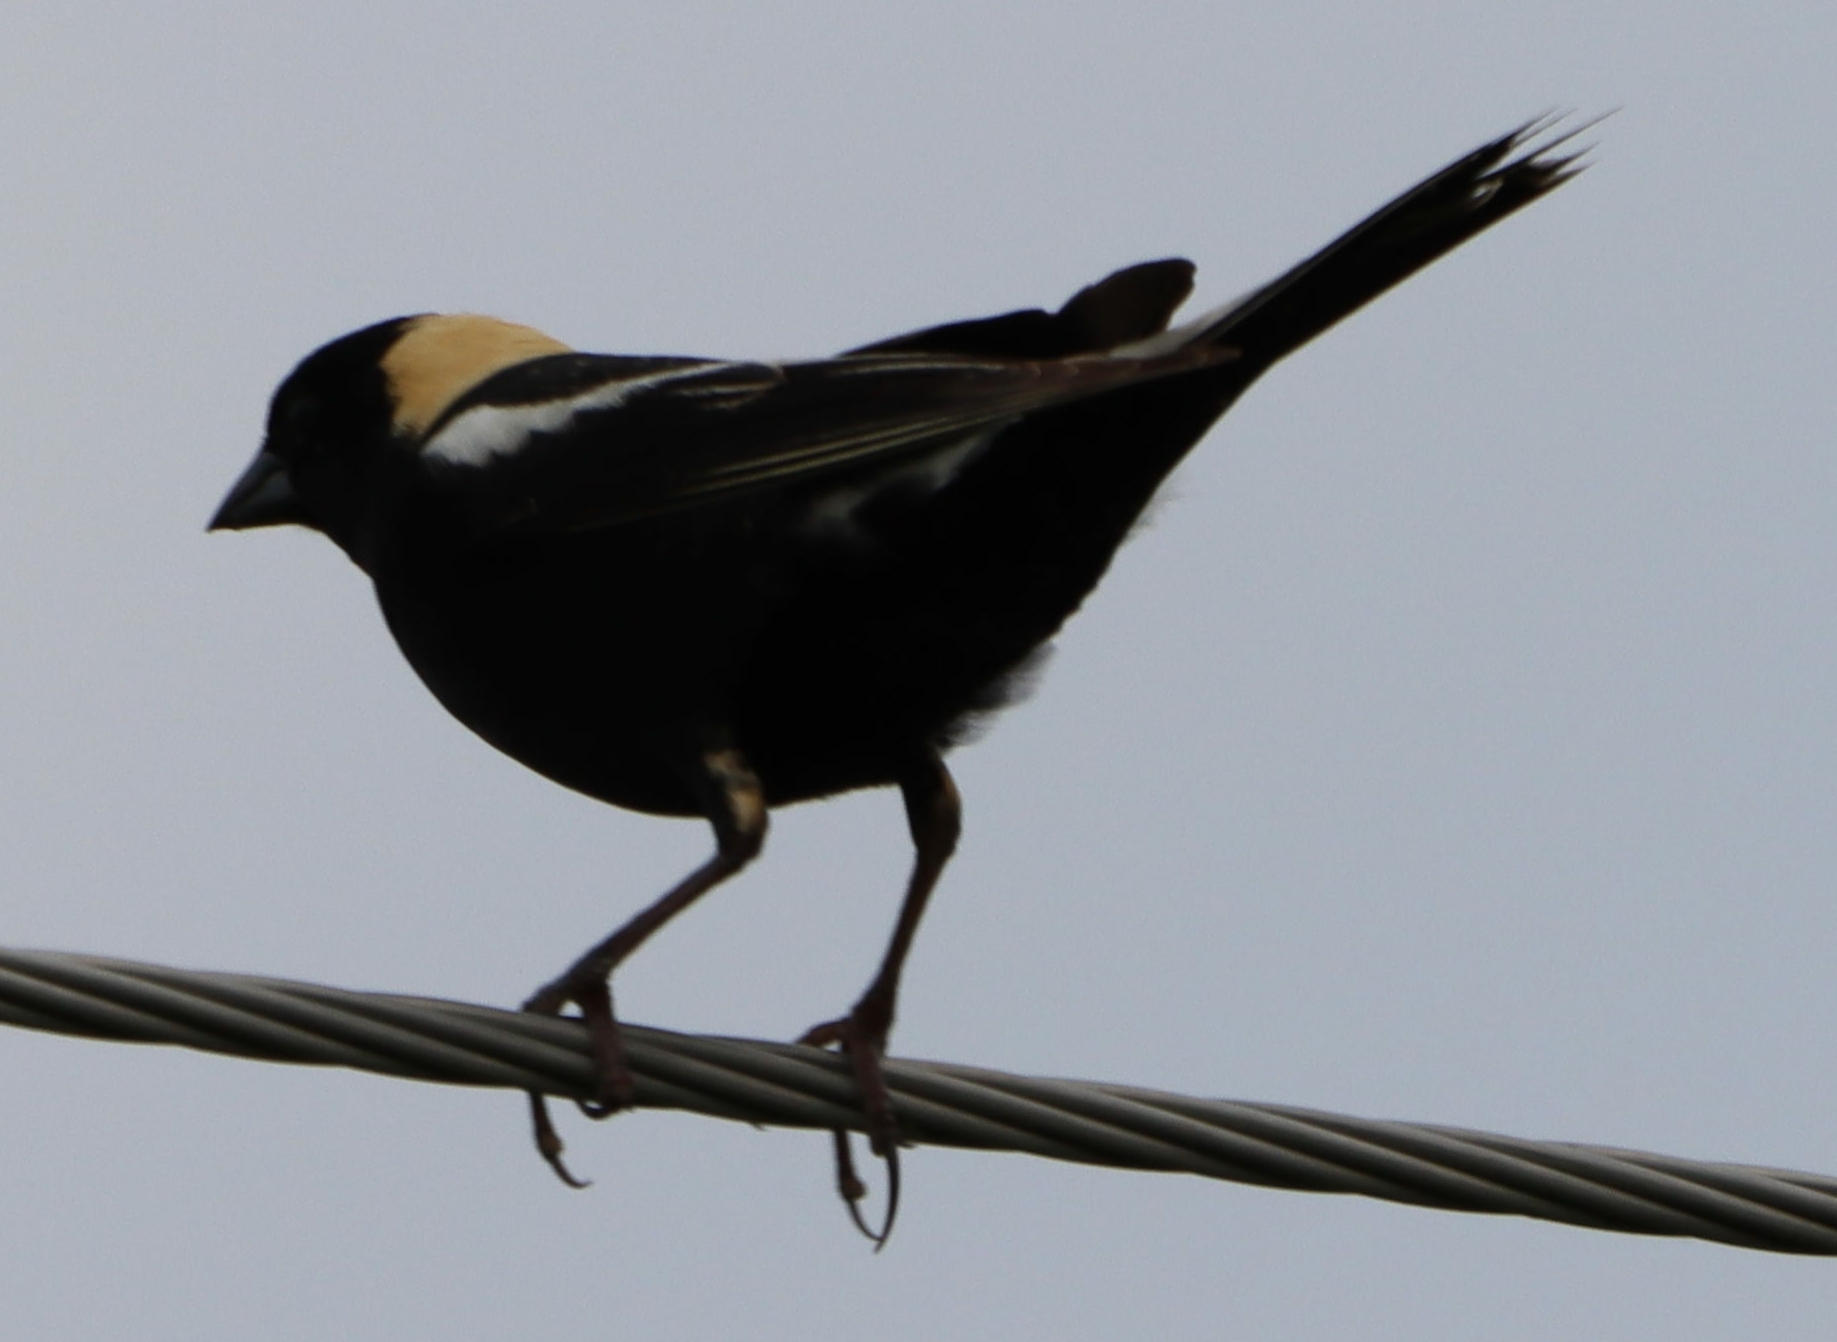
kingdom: Animalia
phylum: Chordata
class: Aves
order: Passeriformes
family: Icteridae
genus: Dolichonyx
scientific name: Dolichonyx oryzivorus
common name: Bobolink
